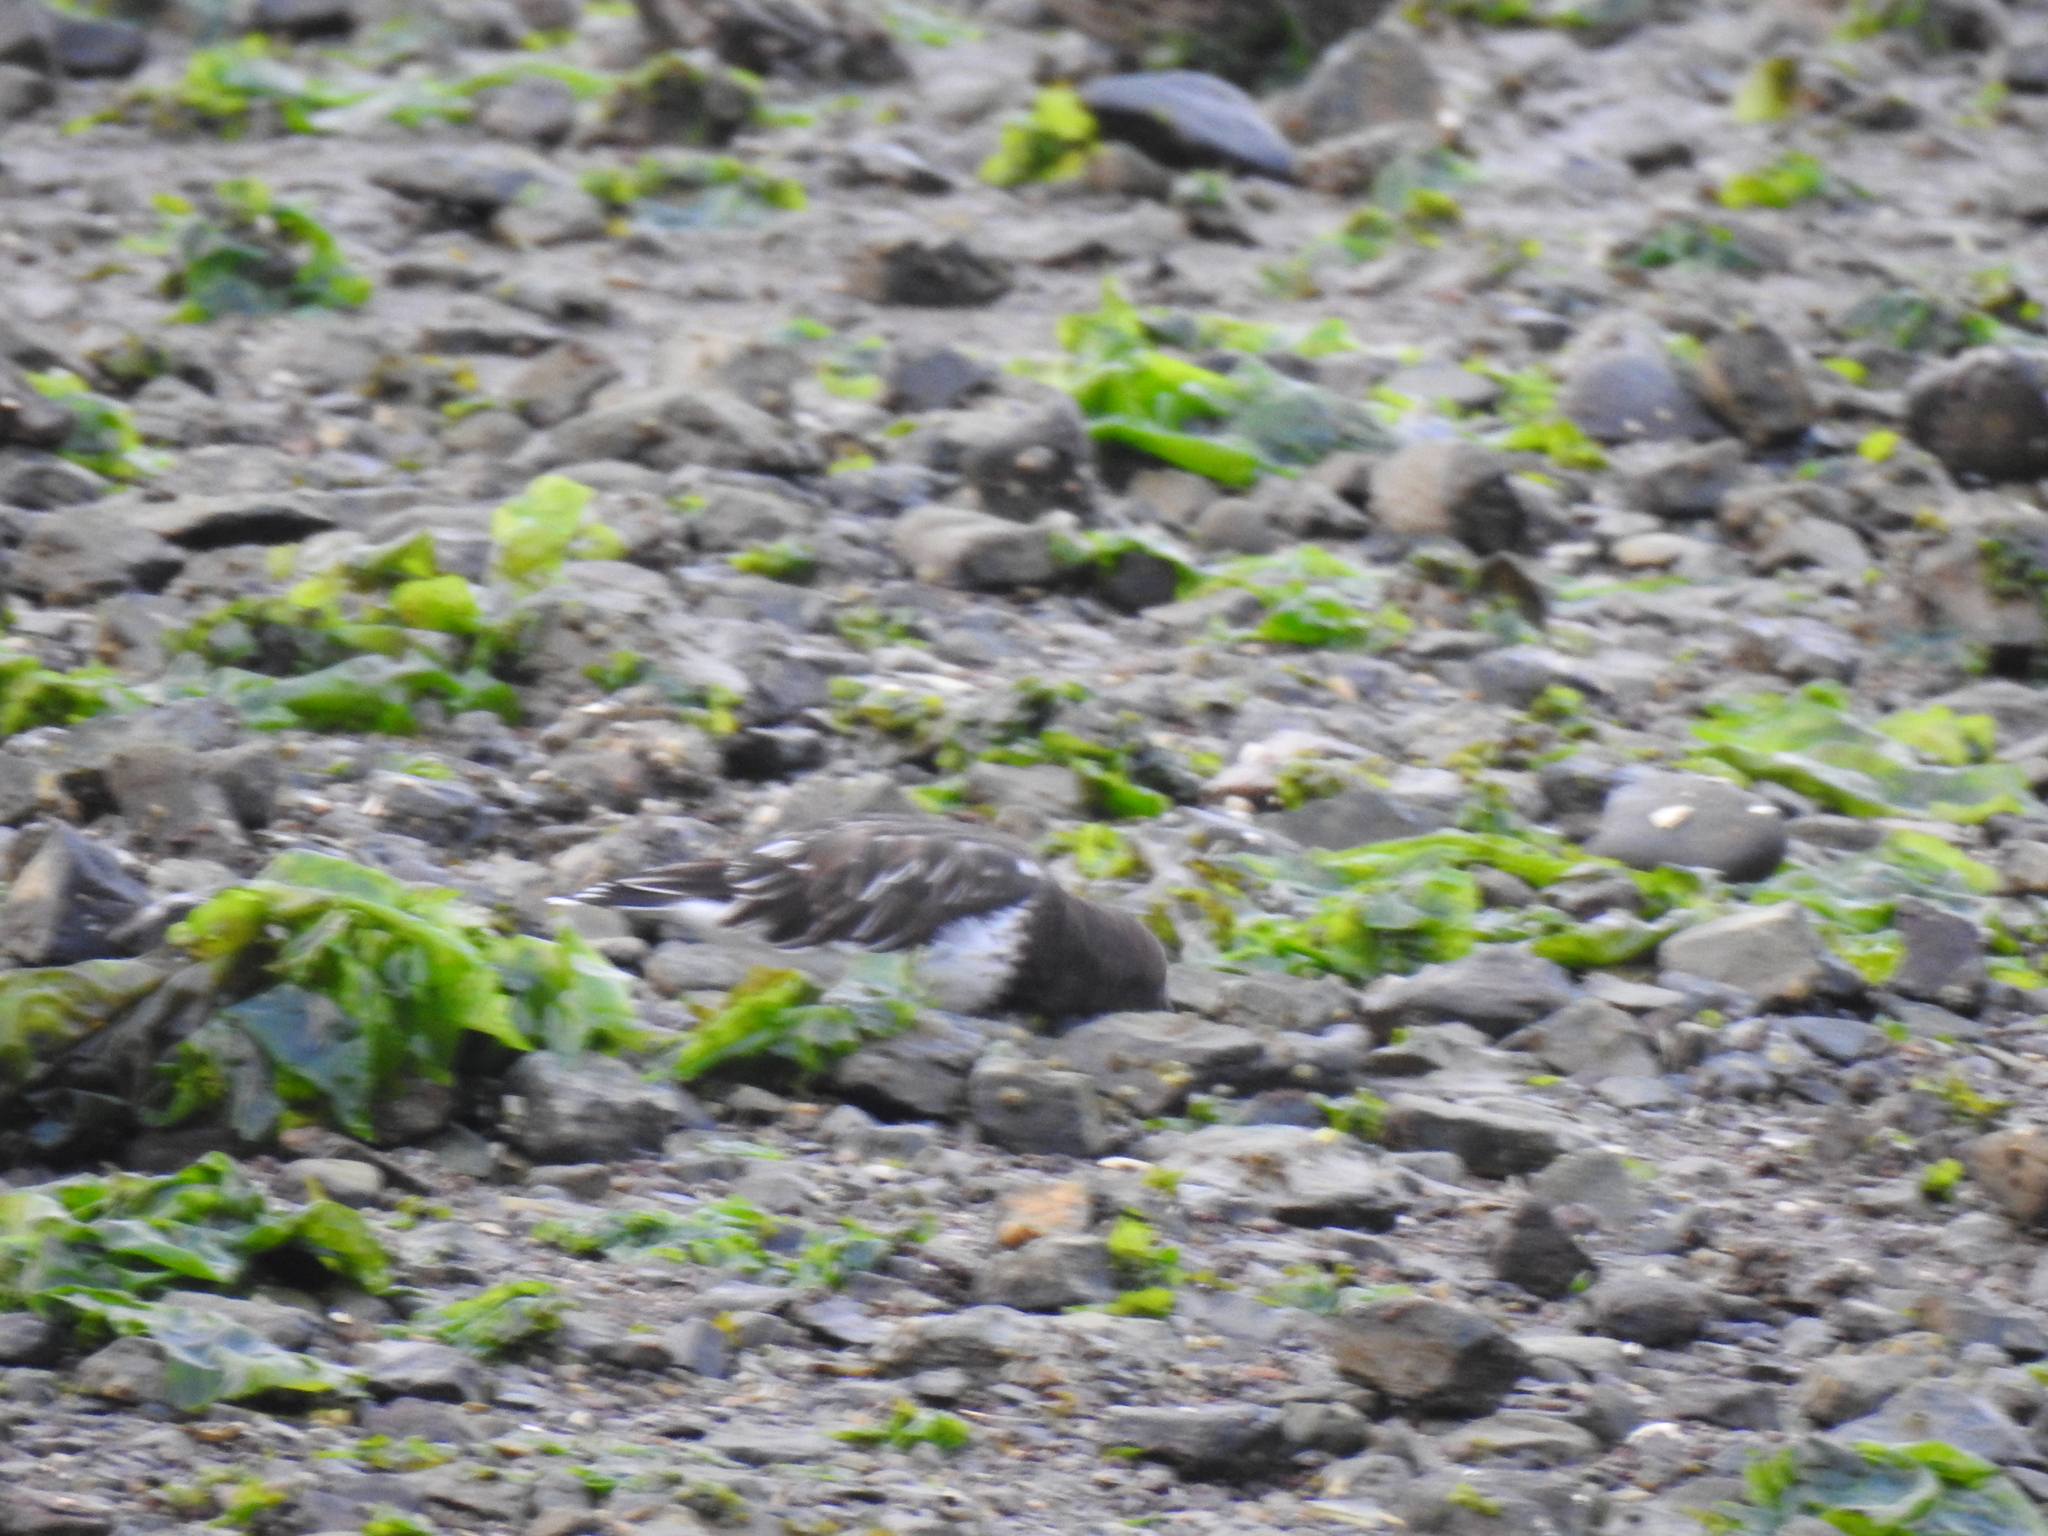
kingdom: Animalia
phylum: Chordata
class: Aves
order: Charadriiformes
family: Scolopacidae
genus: Arenaria
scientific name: Arenaria melanocephala
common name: Black turnstone
